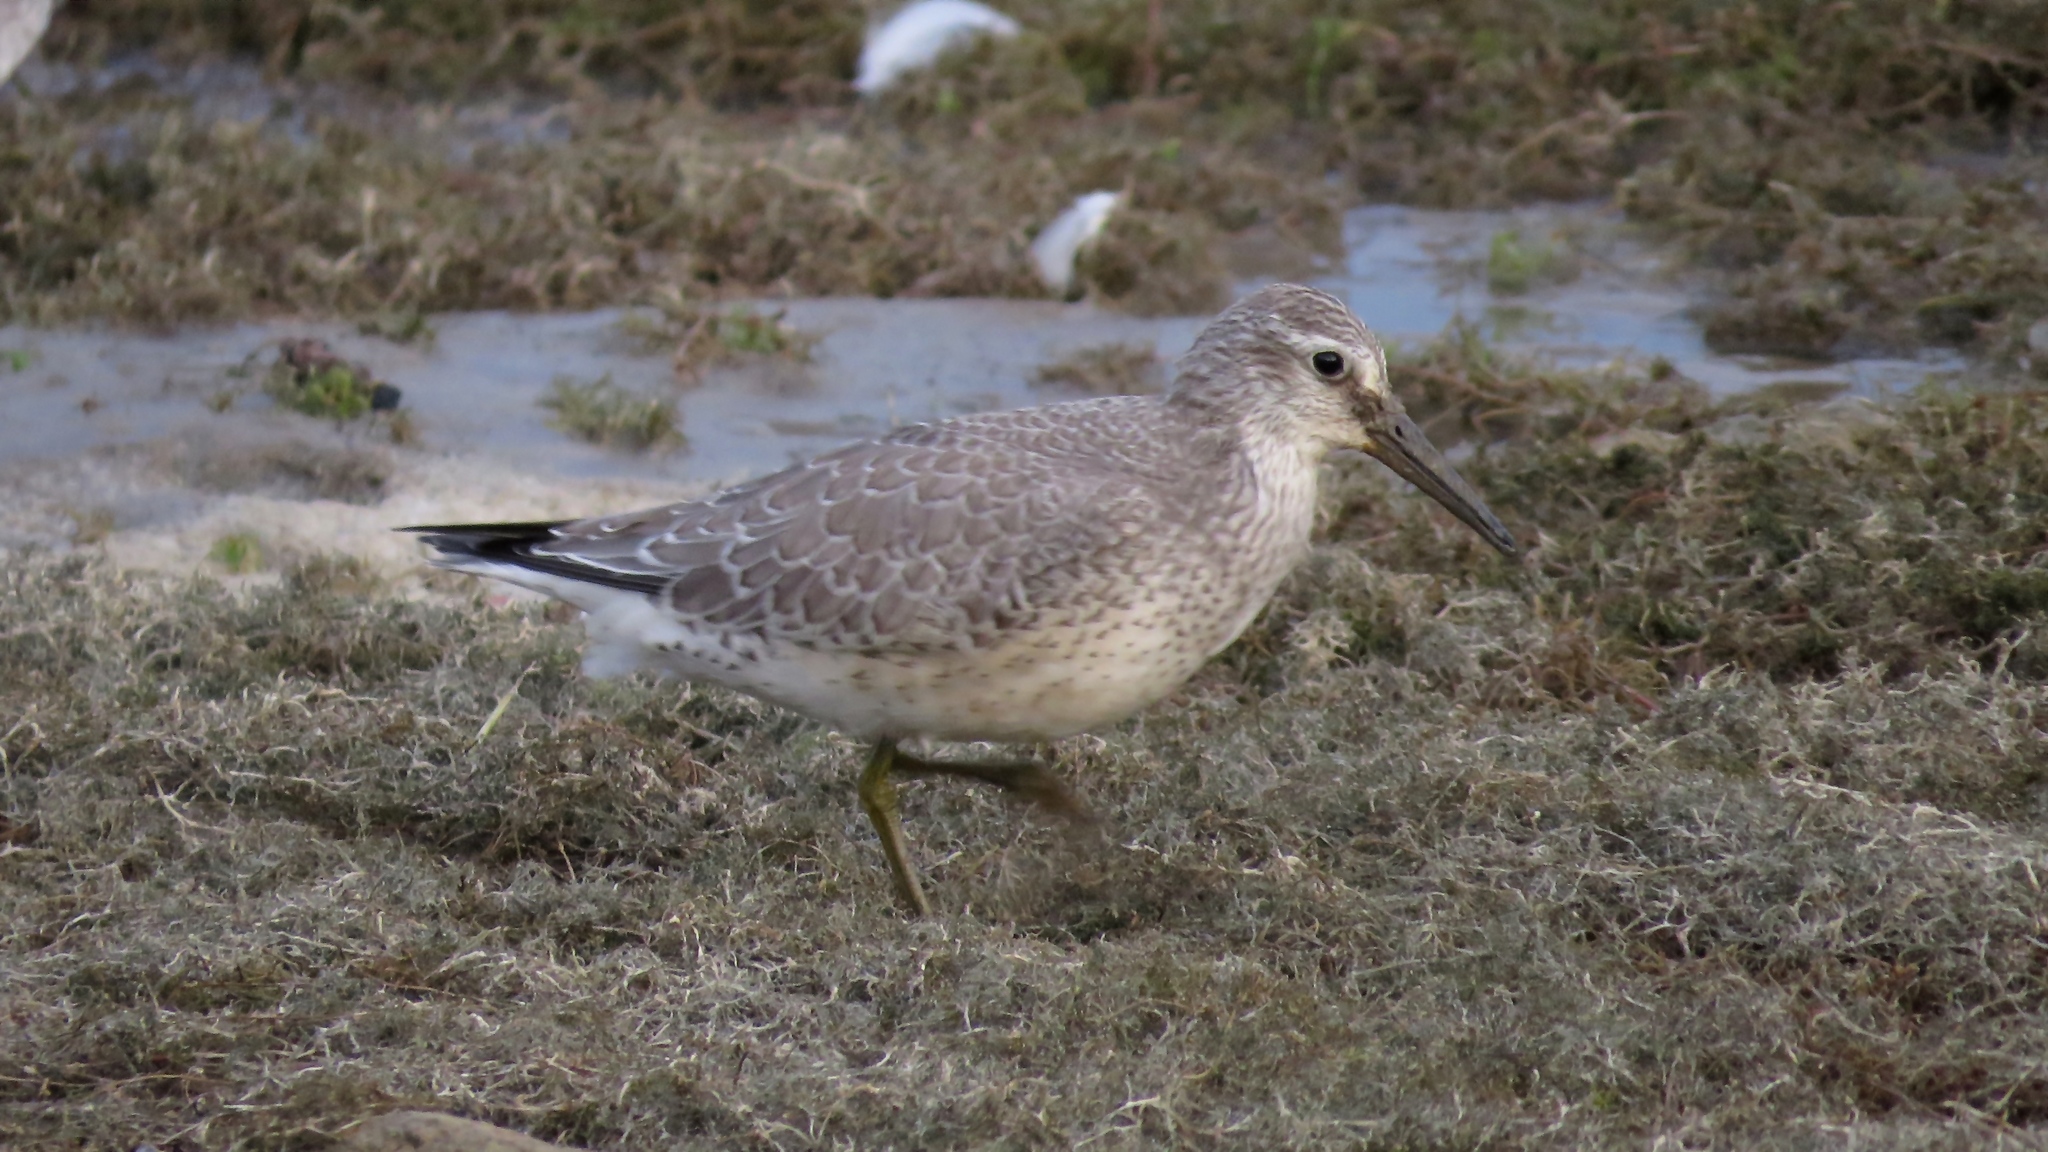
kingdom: Animalia
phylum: Chordata
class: Aves
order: Charadriiformes
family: Scolopacidae
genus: Calidris
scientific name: Calidris canutus
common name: Red knot
